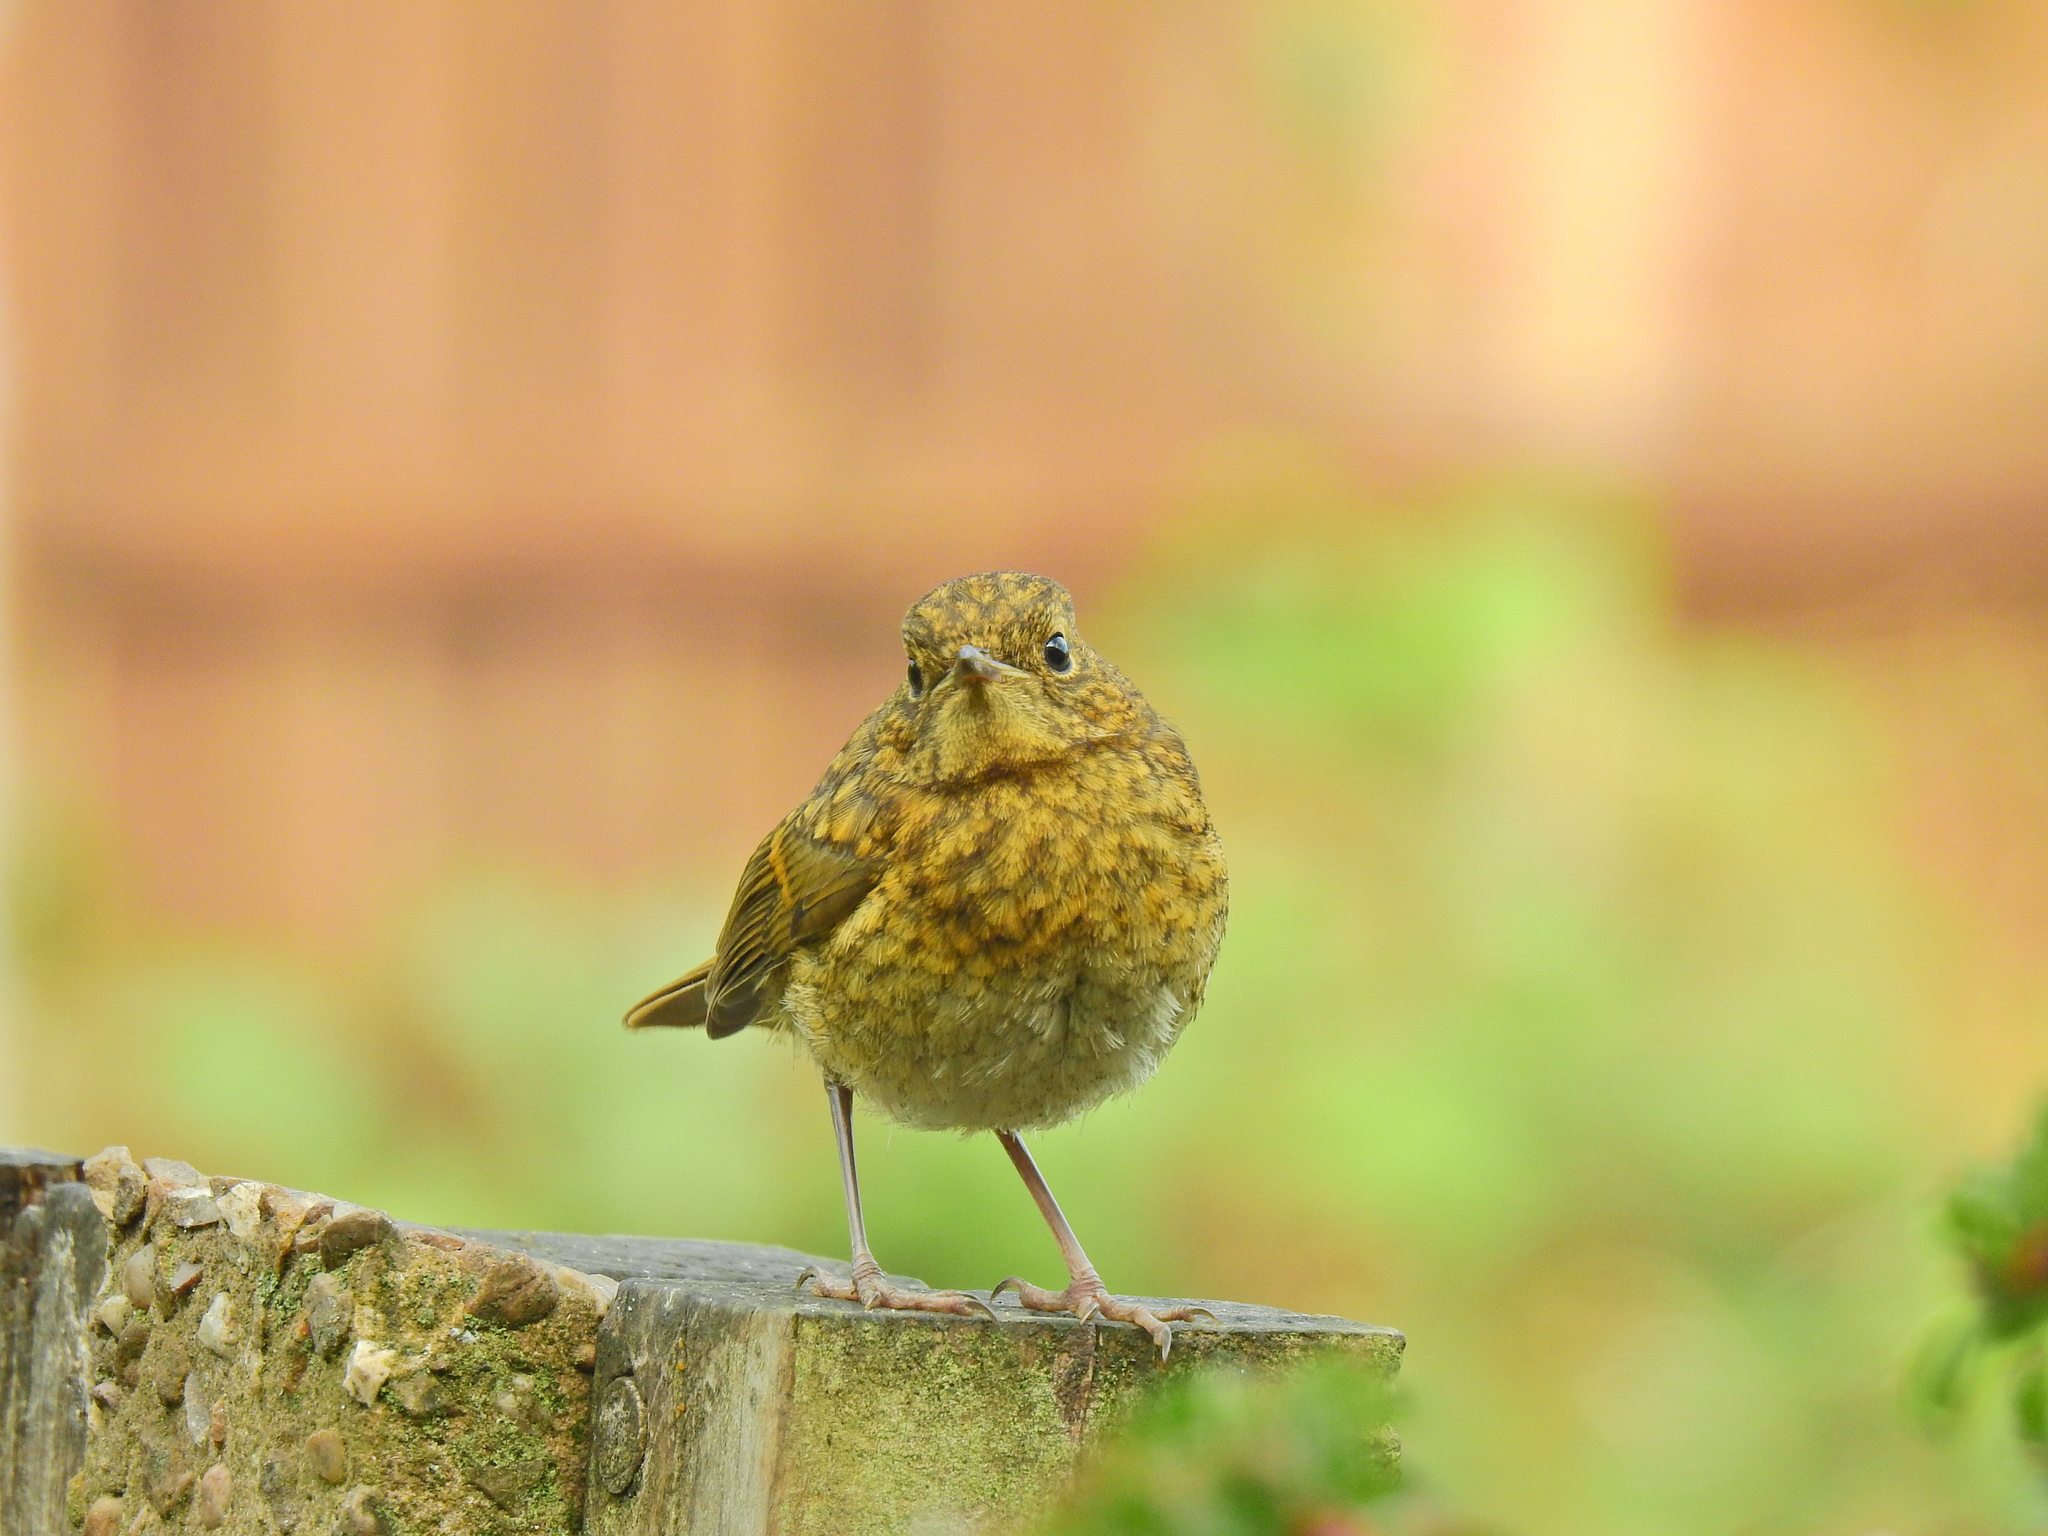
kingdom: Animalia
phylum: Chordata
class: Aves
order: Passeriformes
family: Muscicapidae
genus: Erithacus
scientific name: Erithacus rubecula
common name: European robin
